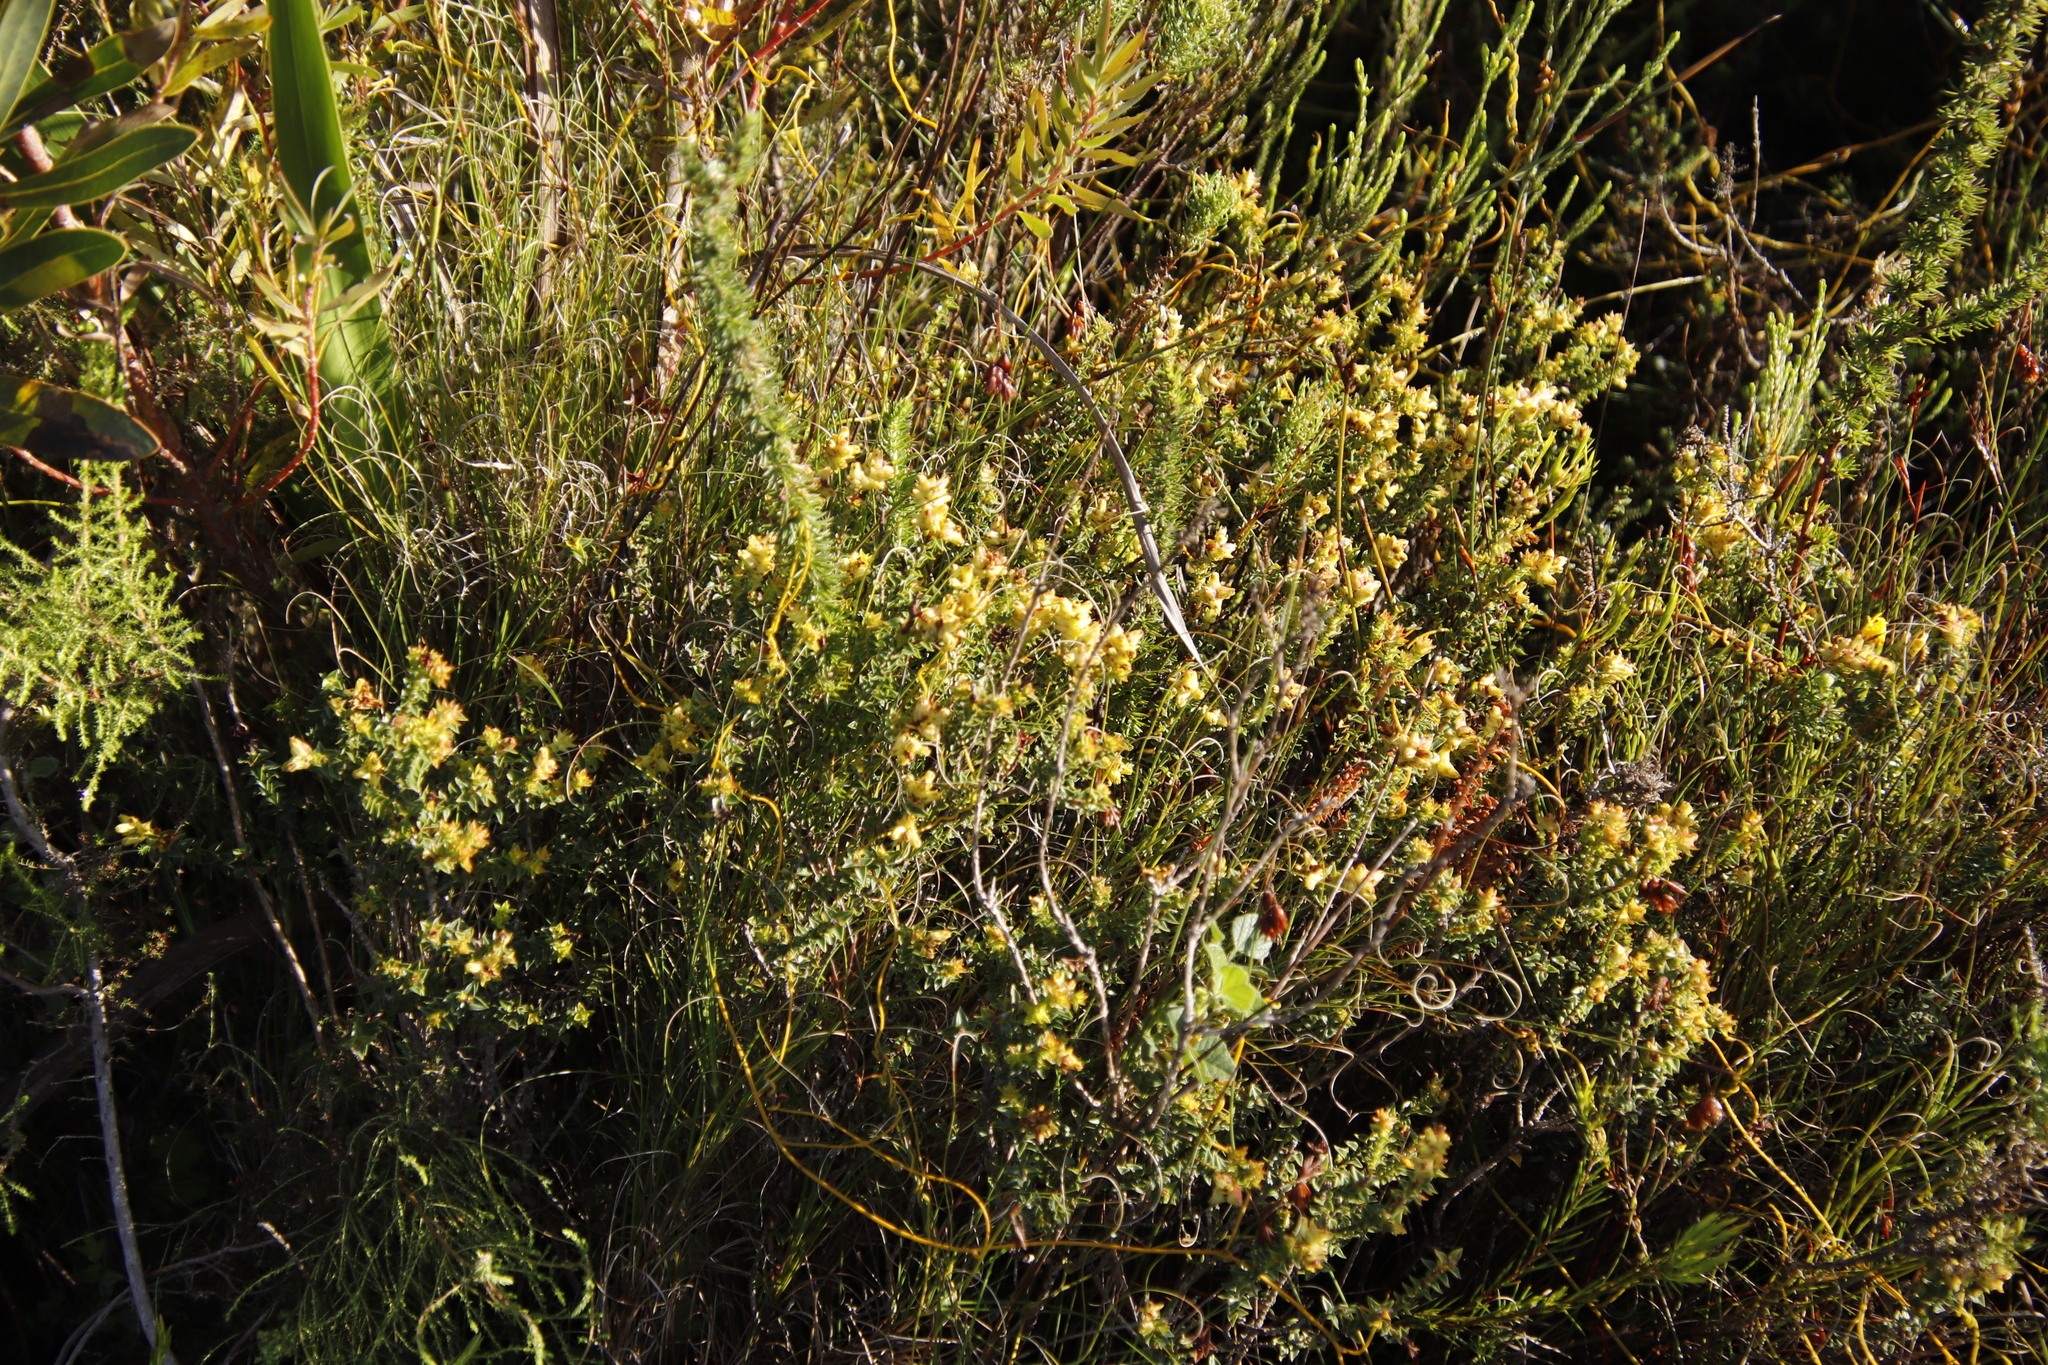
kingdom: Plantae
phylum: Tracheophyta
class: Magnoliopsida
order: Myrtales
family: Penaeaceae
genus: Penaea
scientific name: Penaea mucronata
